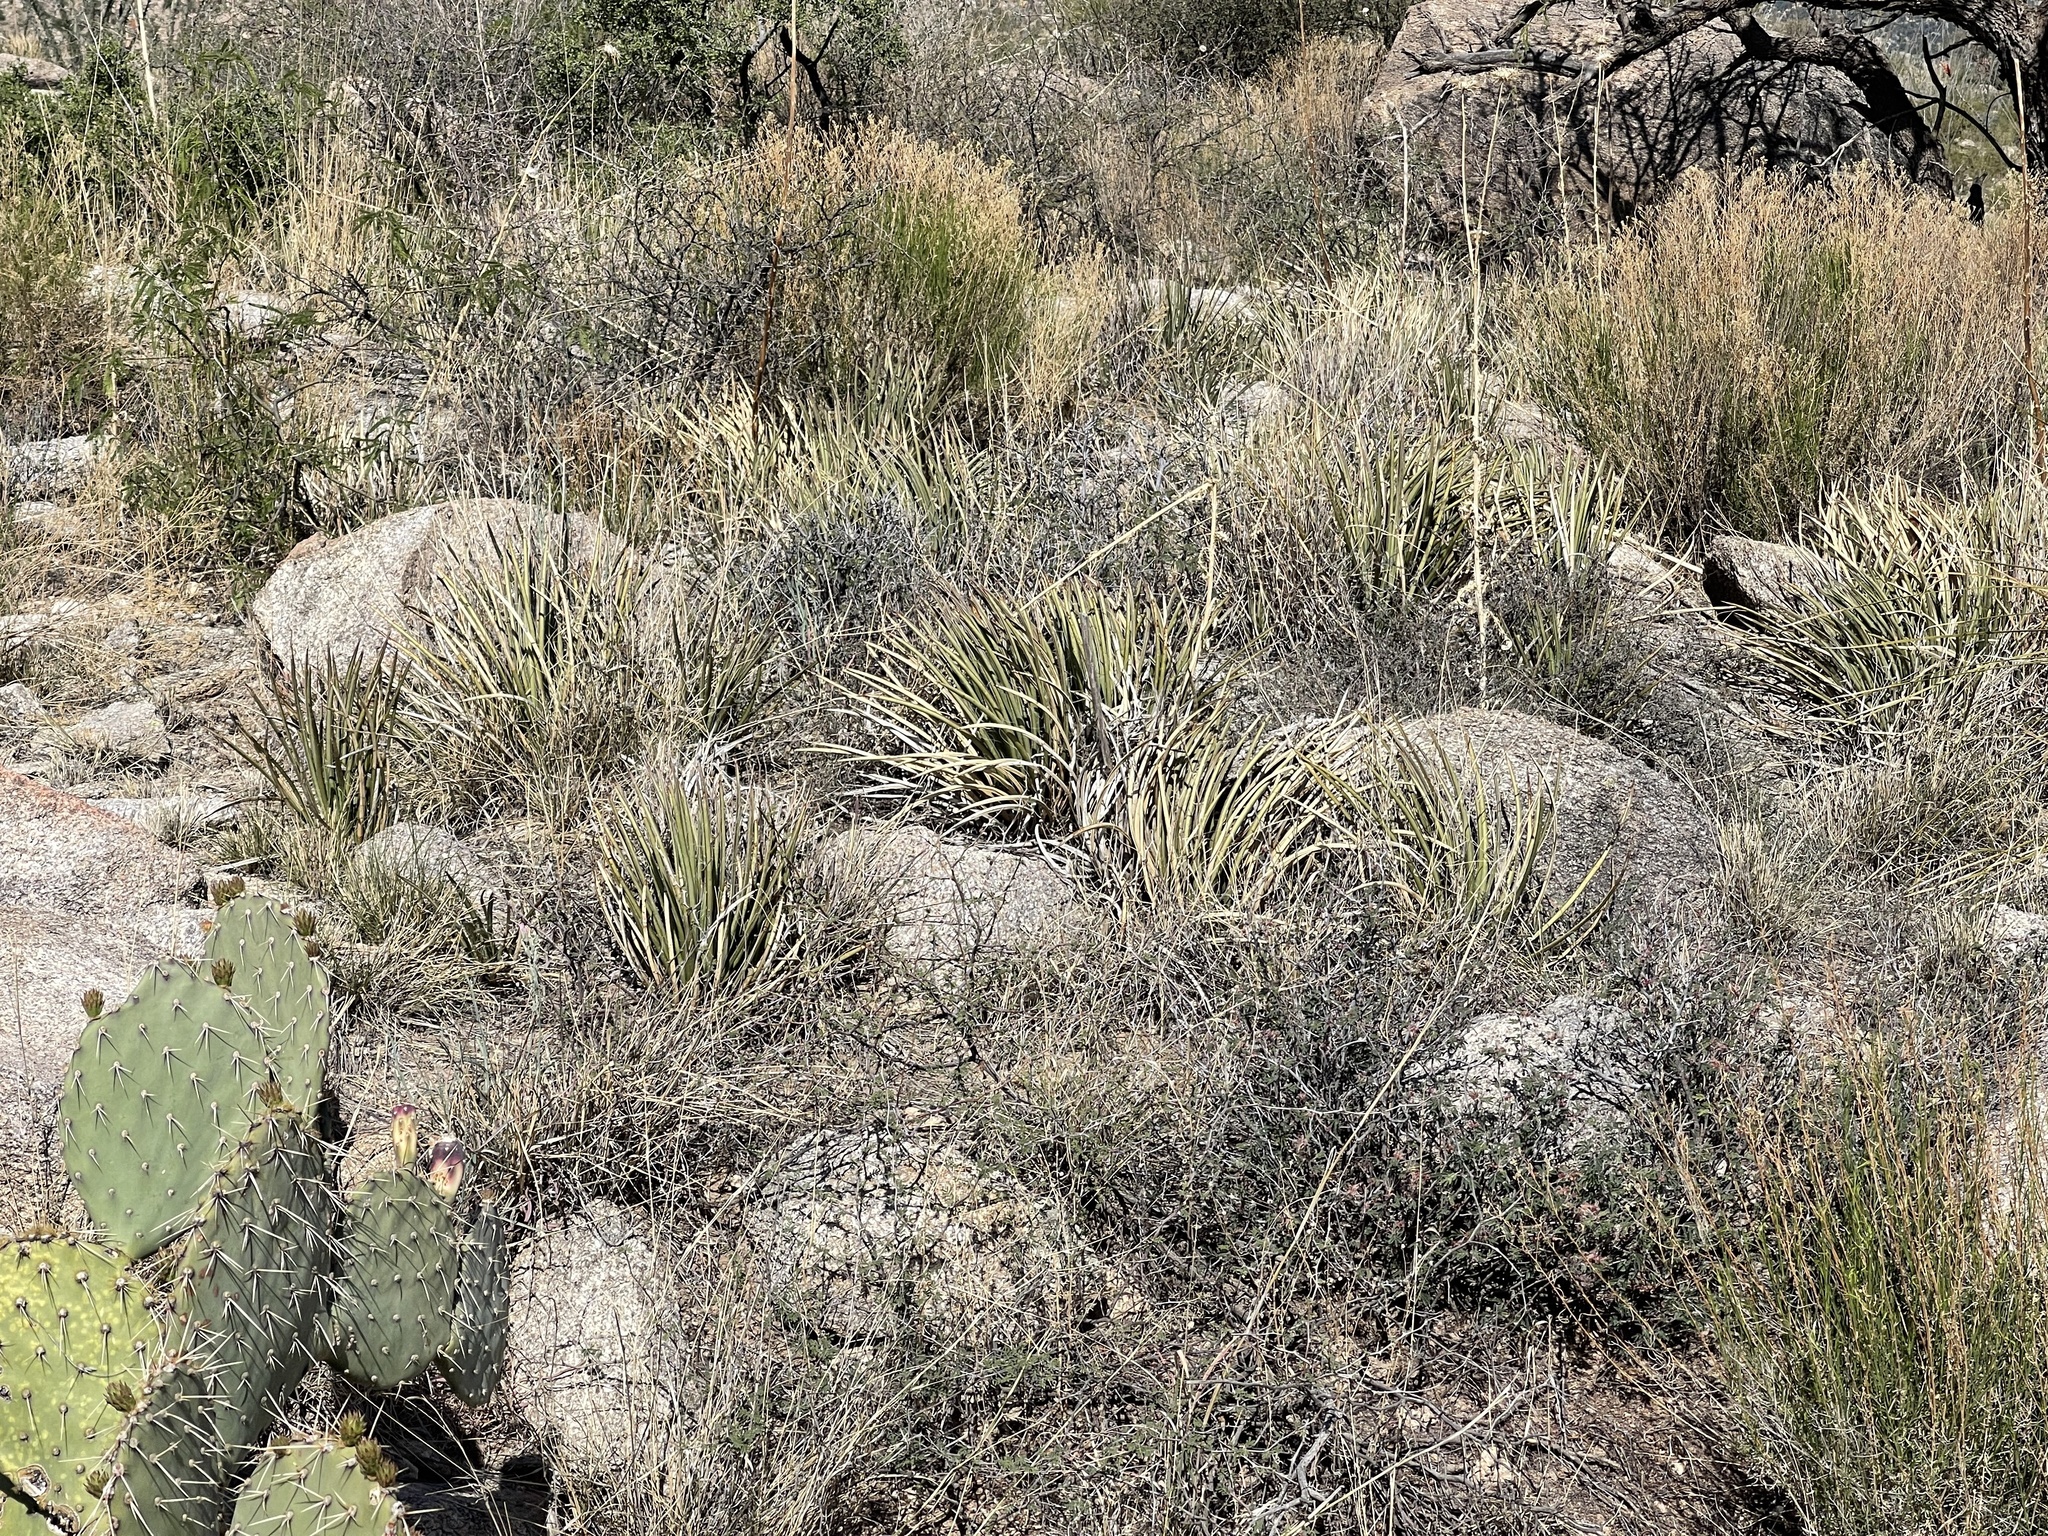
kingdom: Plantae
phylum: Tracheophyta
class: Liliopsida
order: Asparagales
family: Asparagaceae
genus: Agave
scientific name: Agave schottii
